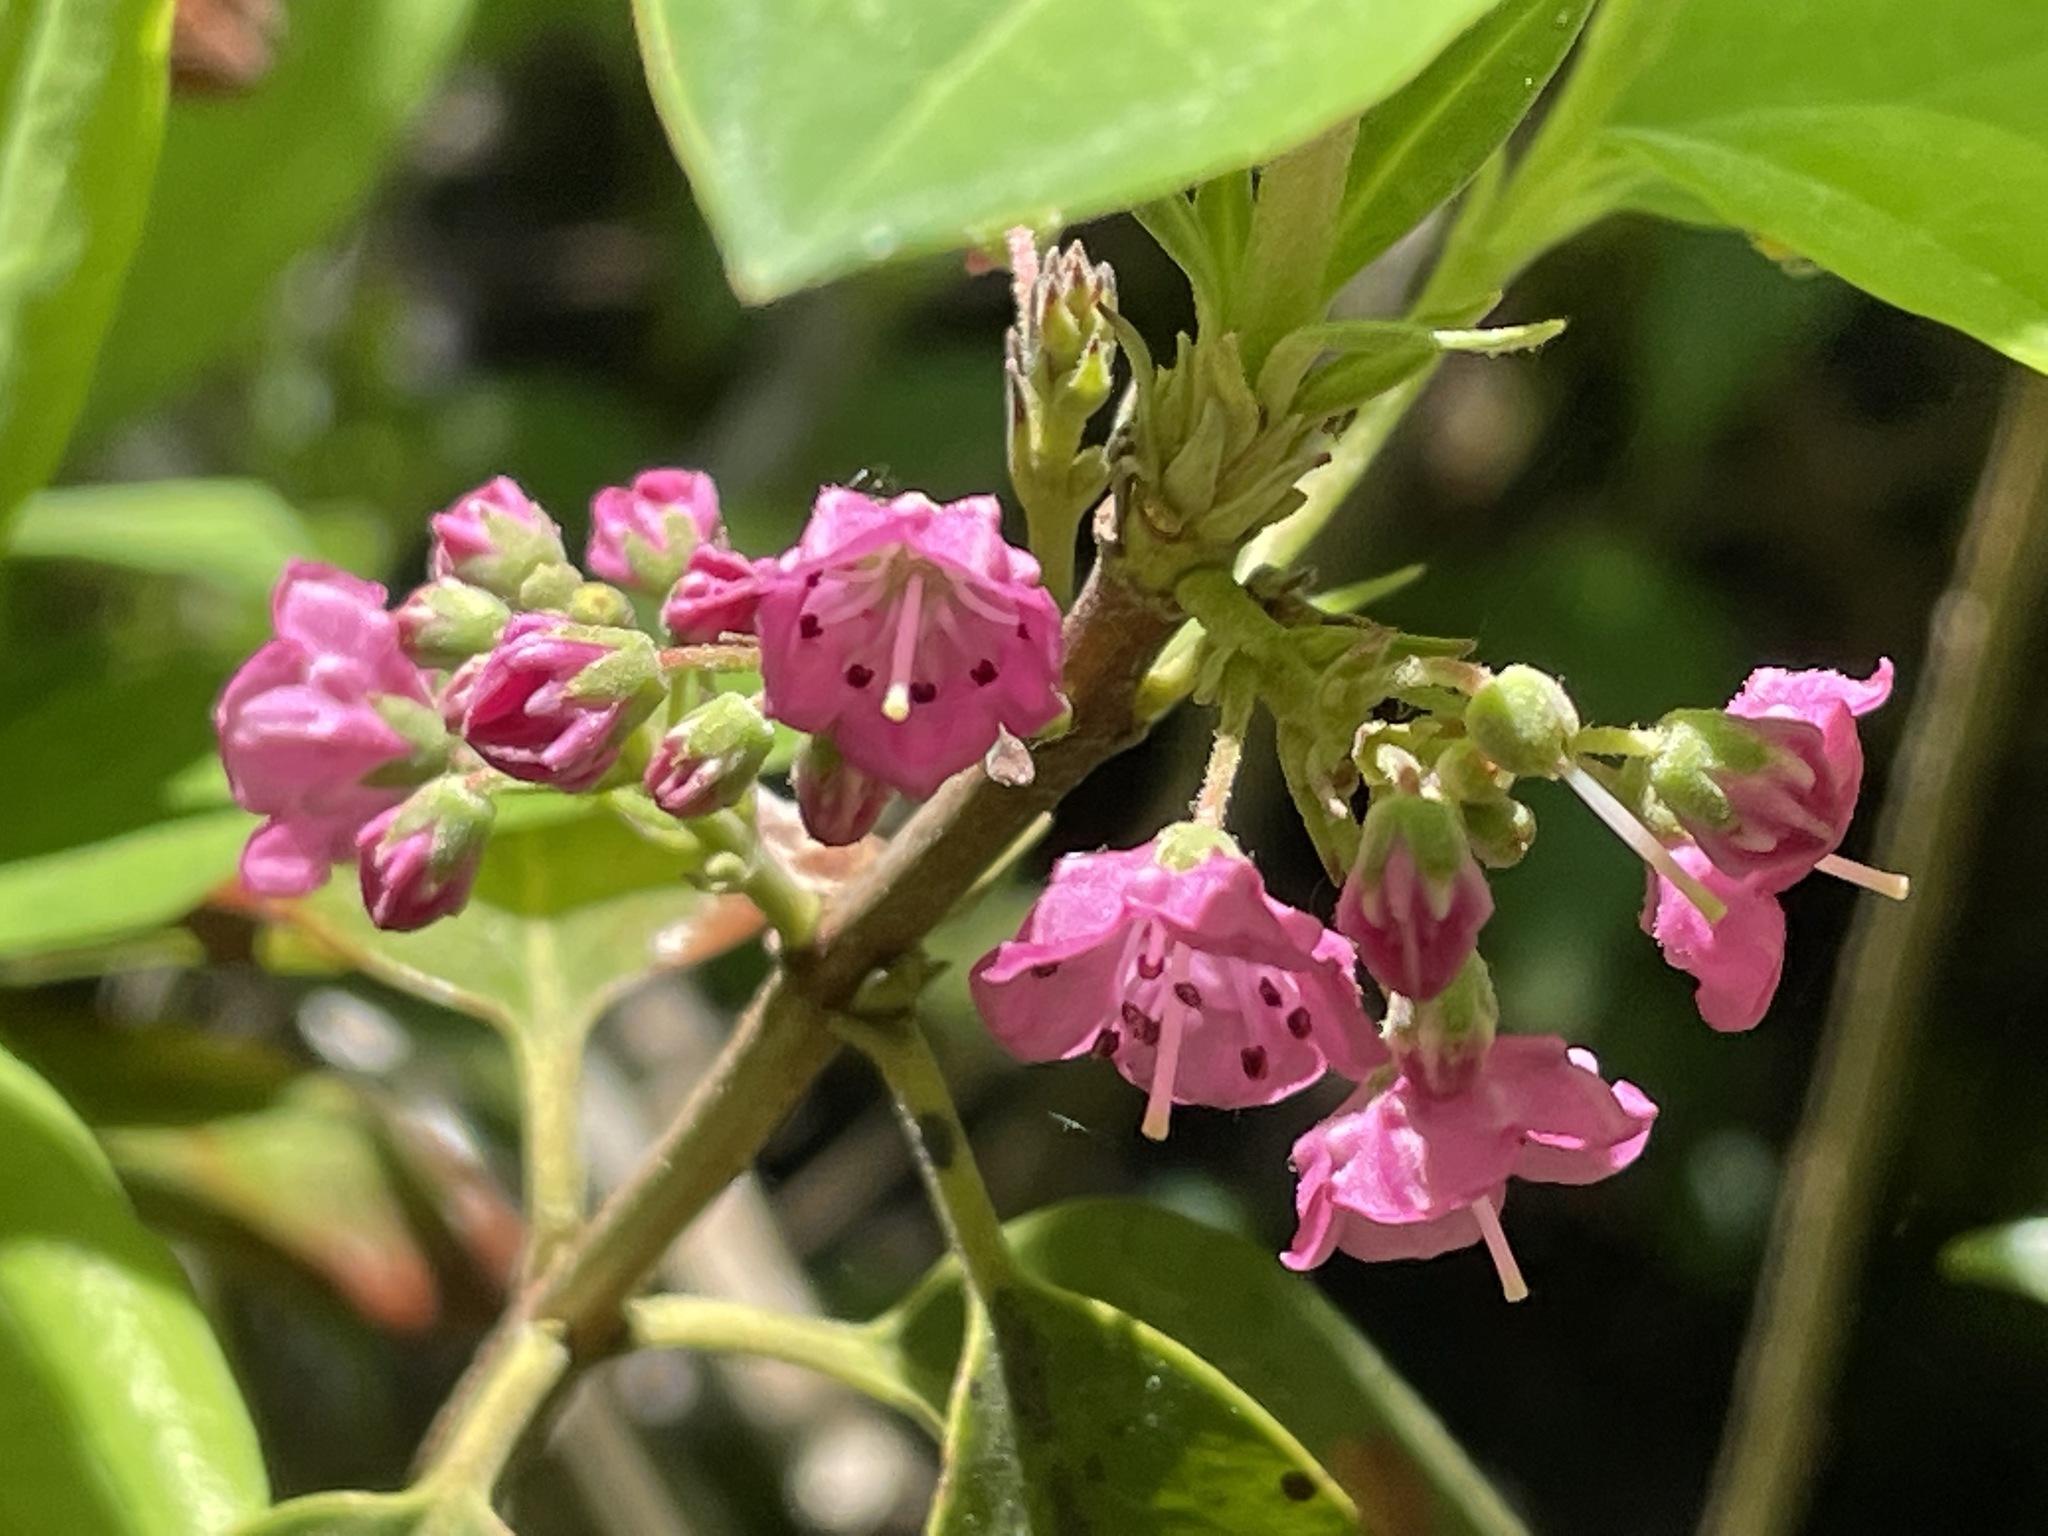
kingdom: Plantae
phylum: Tracheophyta
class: Magnoliopsida
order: Ericales
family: Ericaceae
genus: Kalmia
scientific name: Kalmia angustifolia
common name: Sheep-laurel
